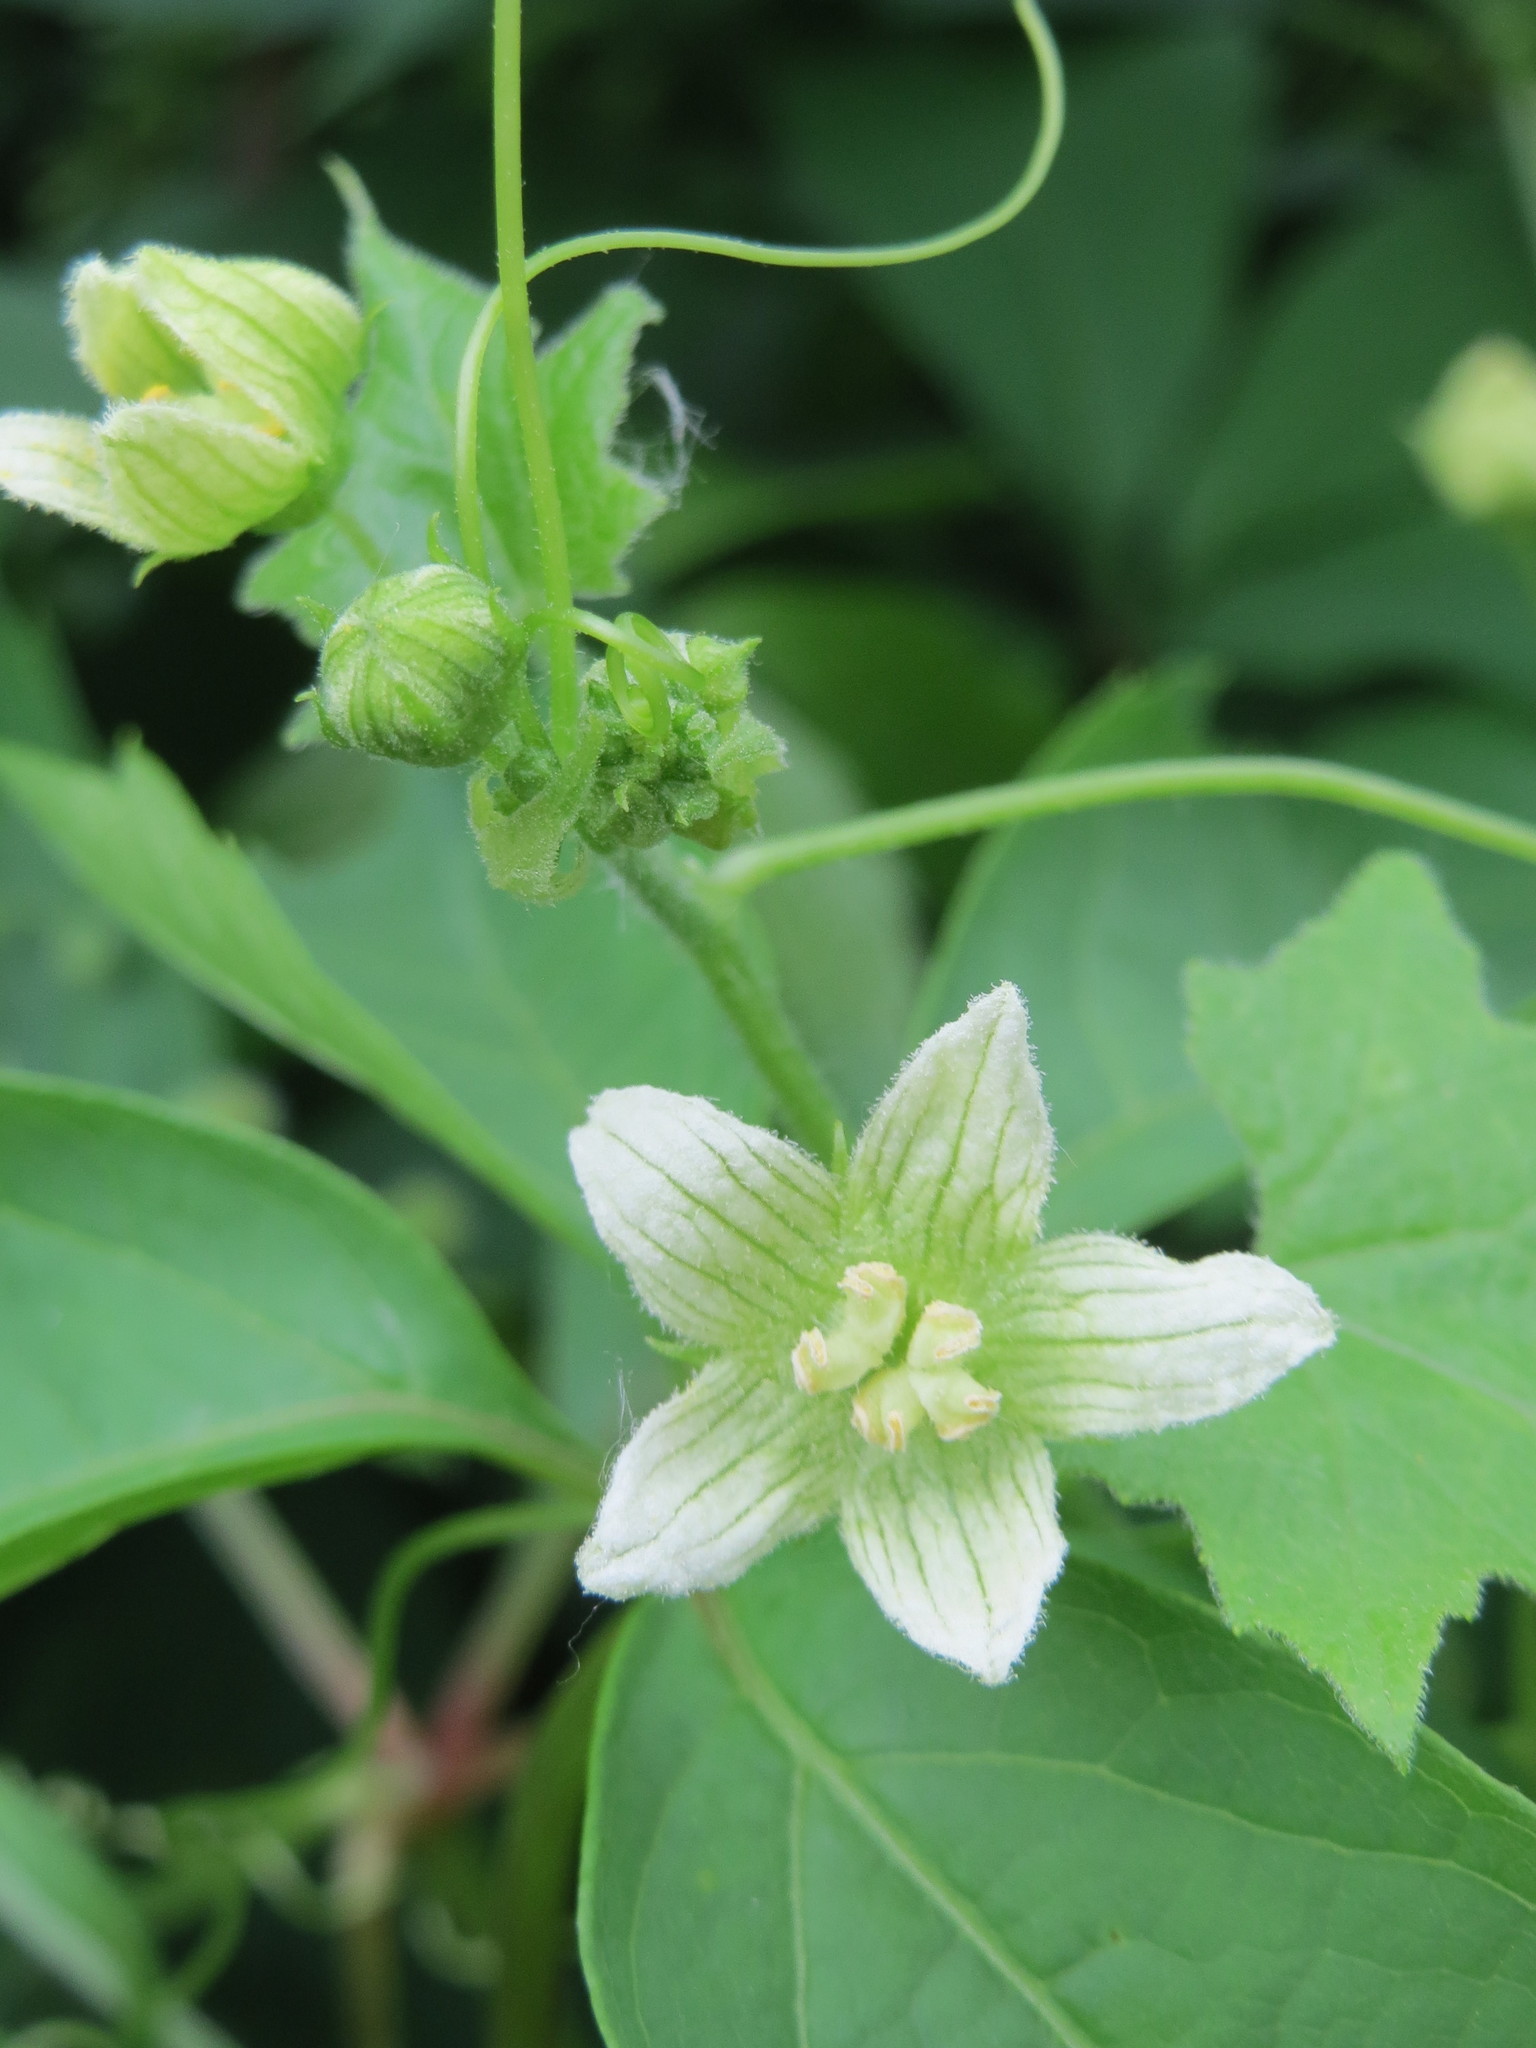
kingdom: Plantae
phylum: Tracheophyta
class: Magnoliopsida
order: Cucurbitales
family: Cucurbitaceae
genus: Bryonia
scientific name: Bryonia dioica
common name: White bryony
